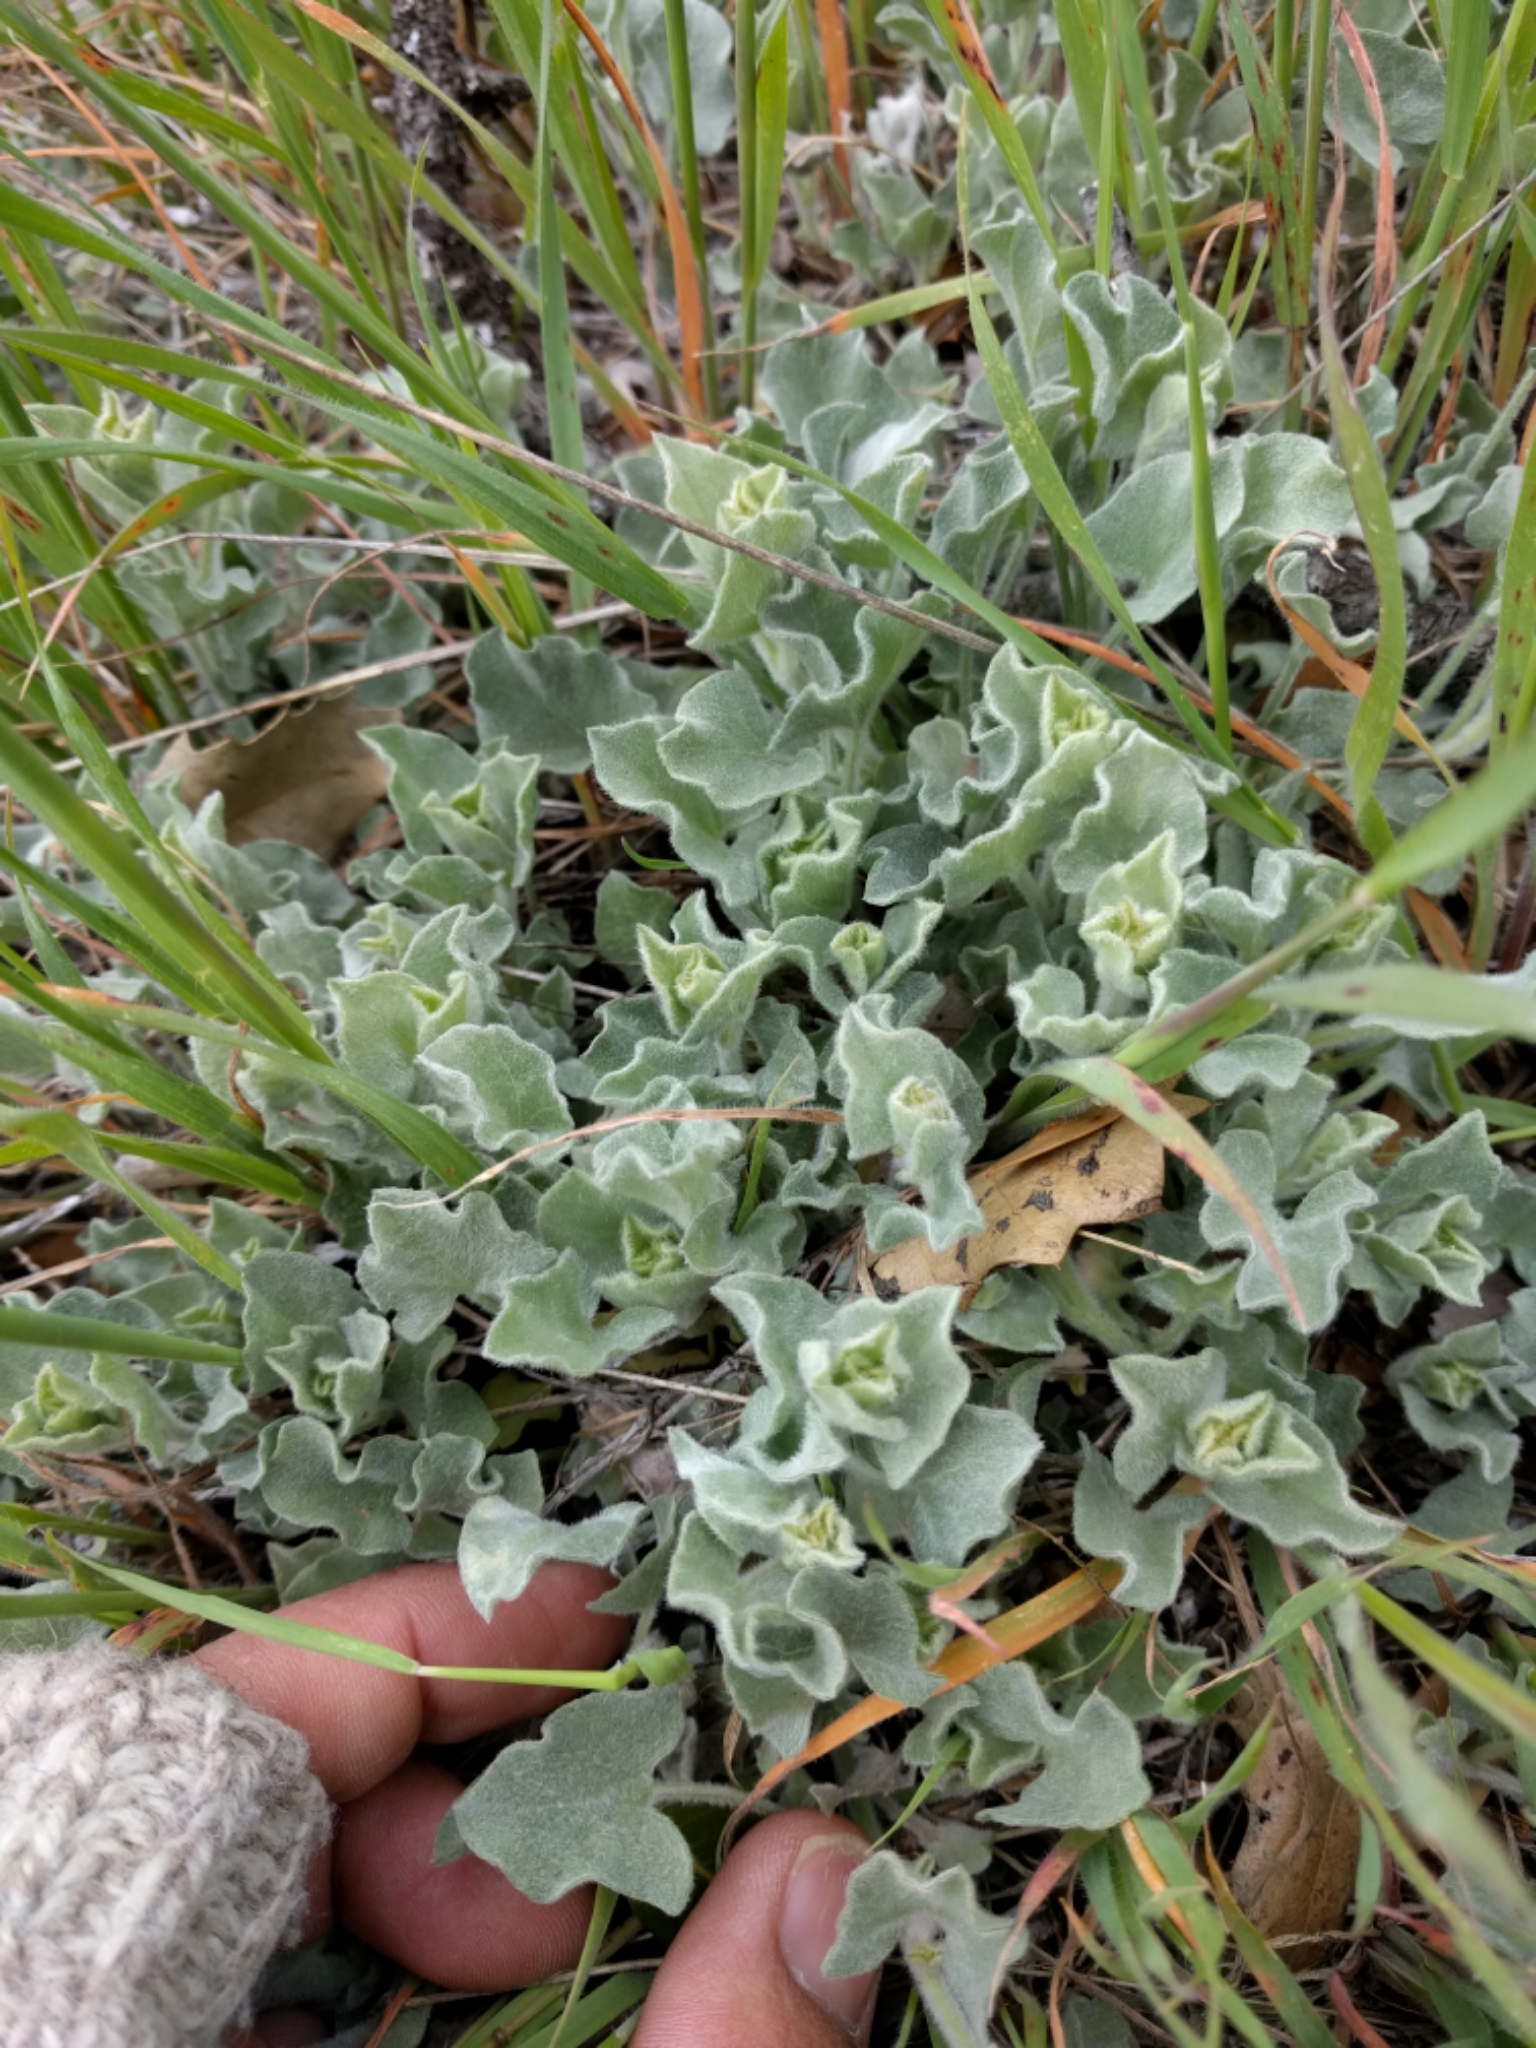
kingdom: Plantae
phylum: Tracheophyta
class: Magnoliopsida
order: Solanales
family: Convolvulaceae
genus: Calystegia
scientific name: Calystegia malacophylla
